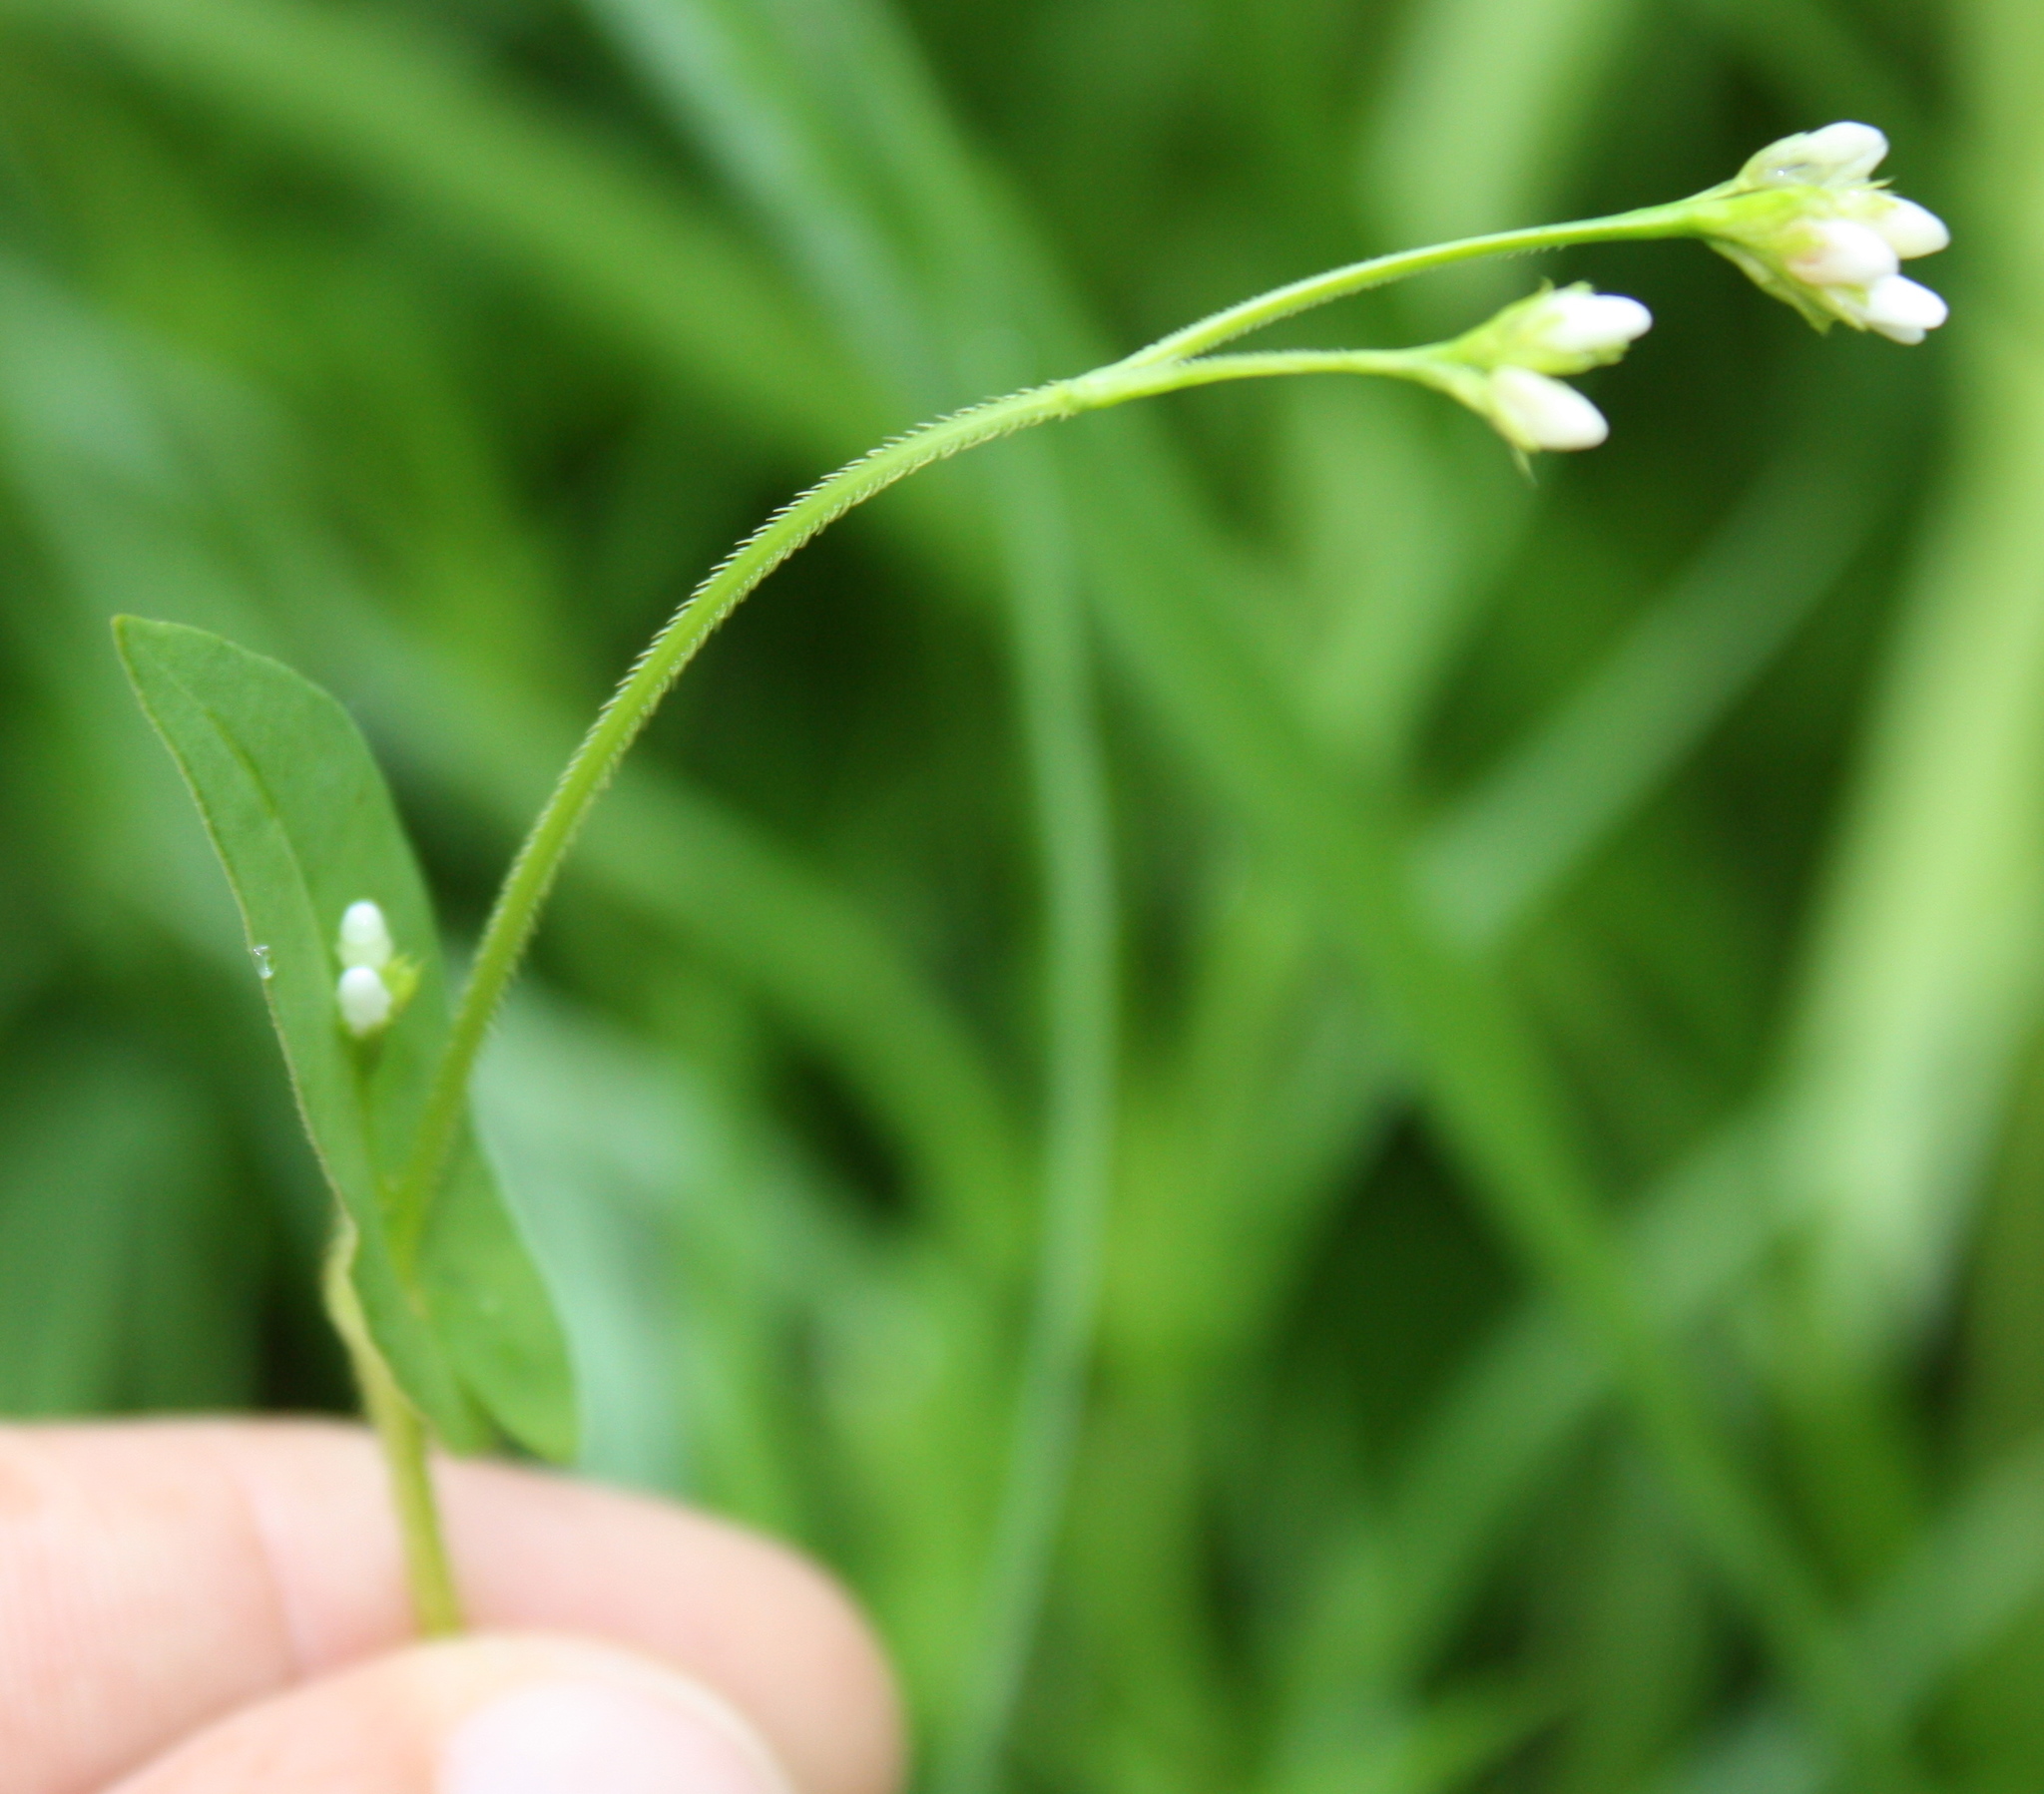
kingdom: Plantae
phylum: Tracheophyta
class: Magnoliopsida
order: Caryophyllales
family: Polygonaceae
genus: Persicaria
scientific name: Persicaria sagittata
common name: American tearthumb
